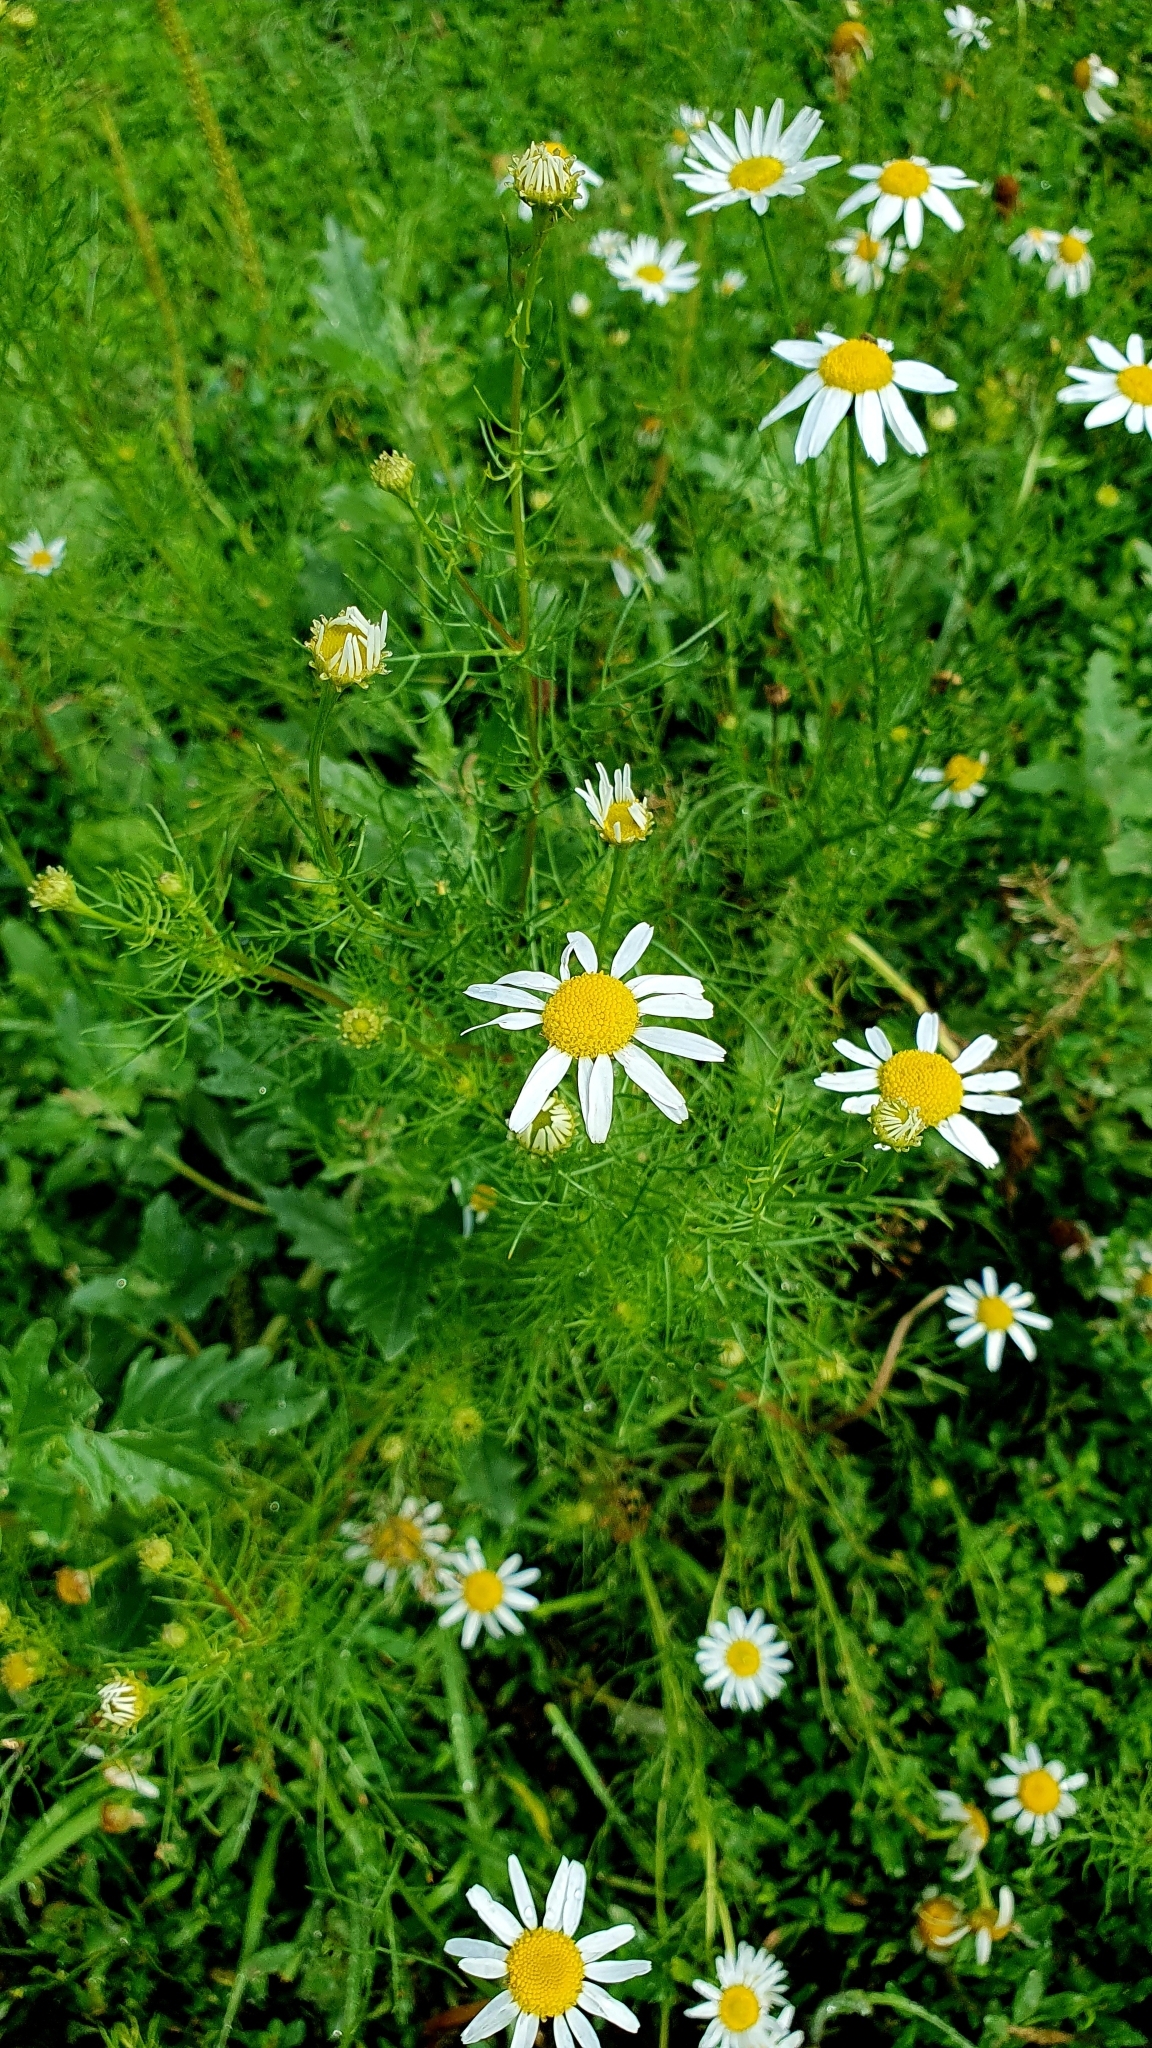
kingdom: Plantae
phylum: Tracheophyta
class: Magnoliopsida
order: Asterales
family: Asteraceae
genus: Tripleurospermum
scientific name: Tripleurospermum inodorum
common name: Scentless mayweed
